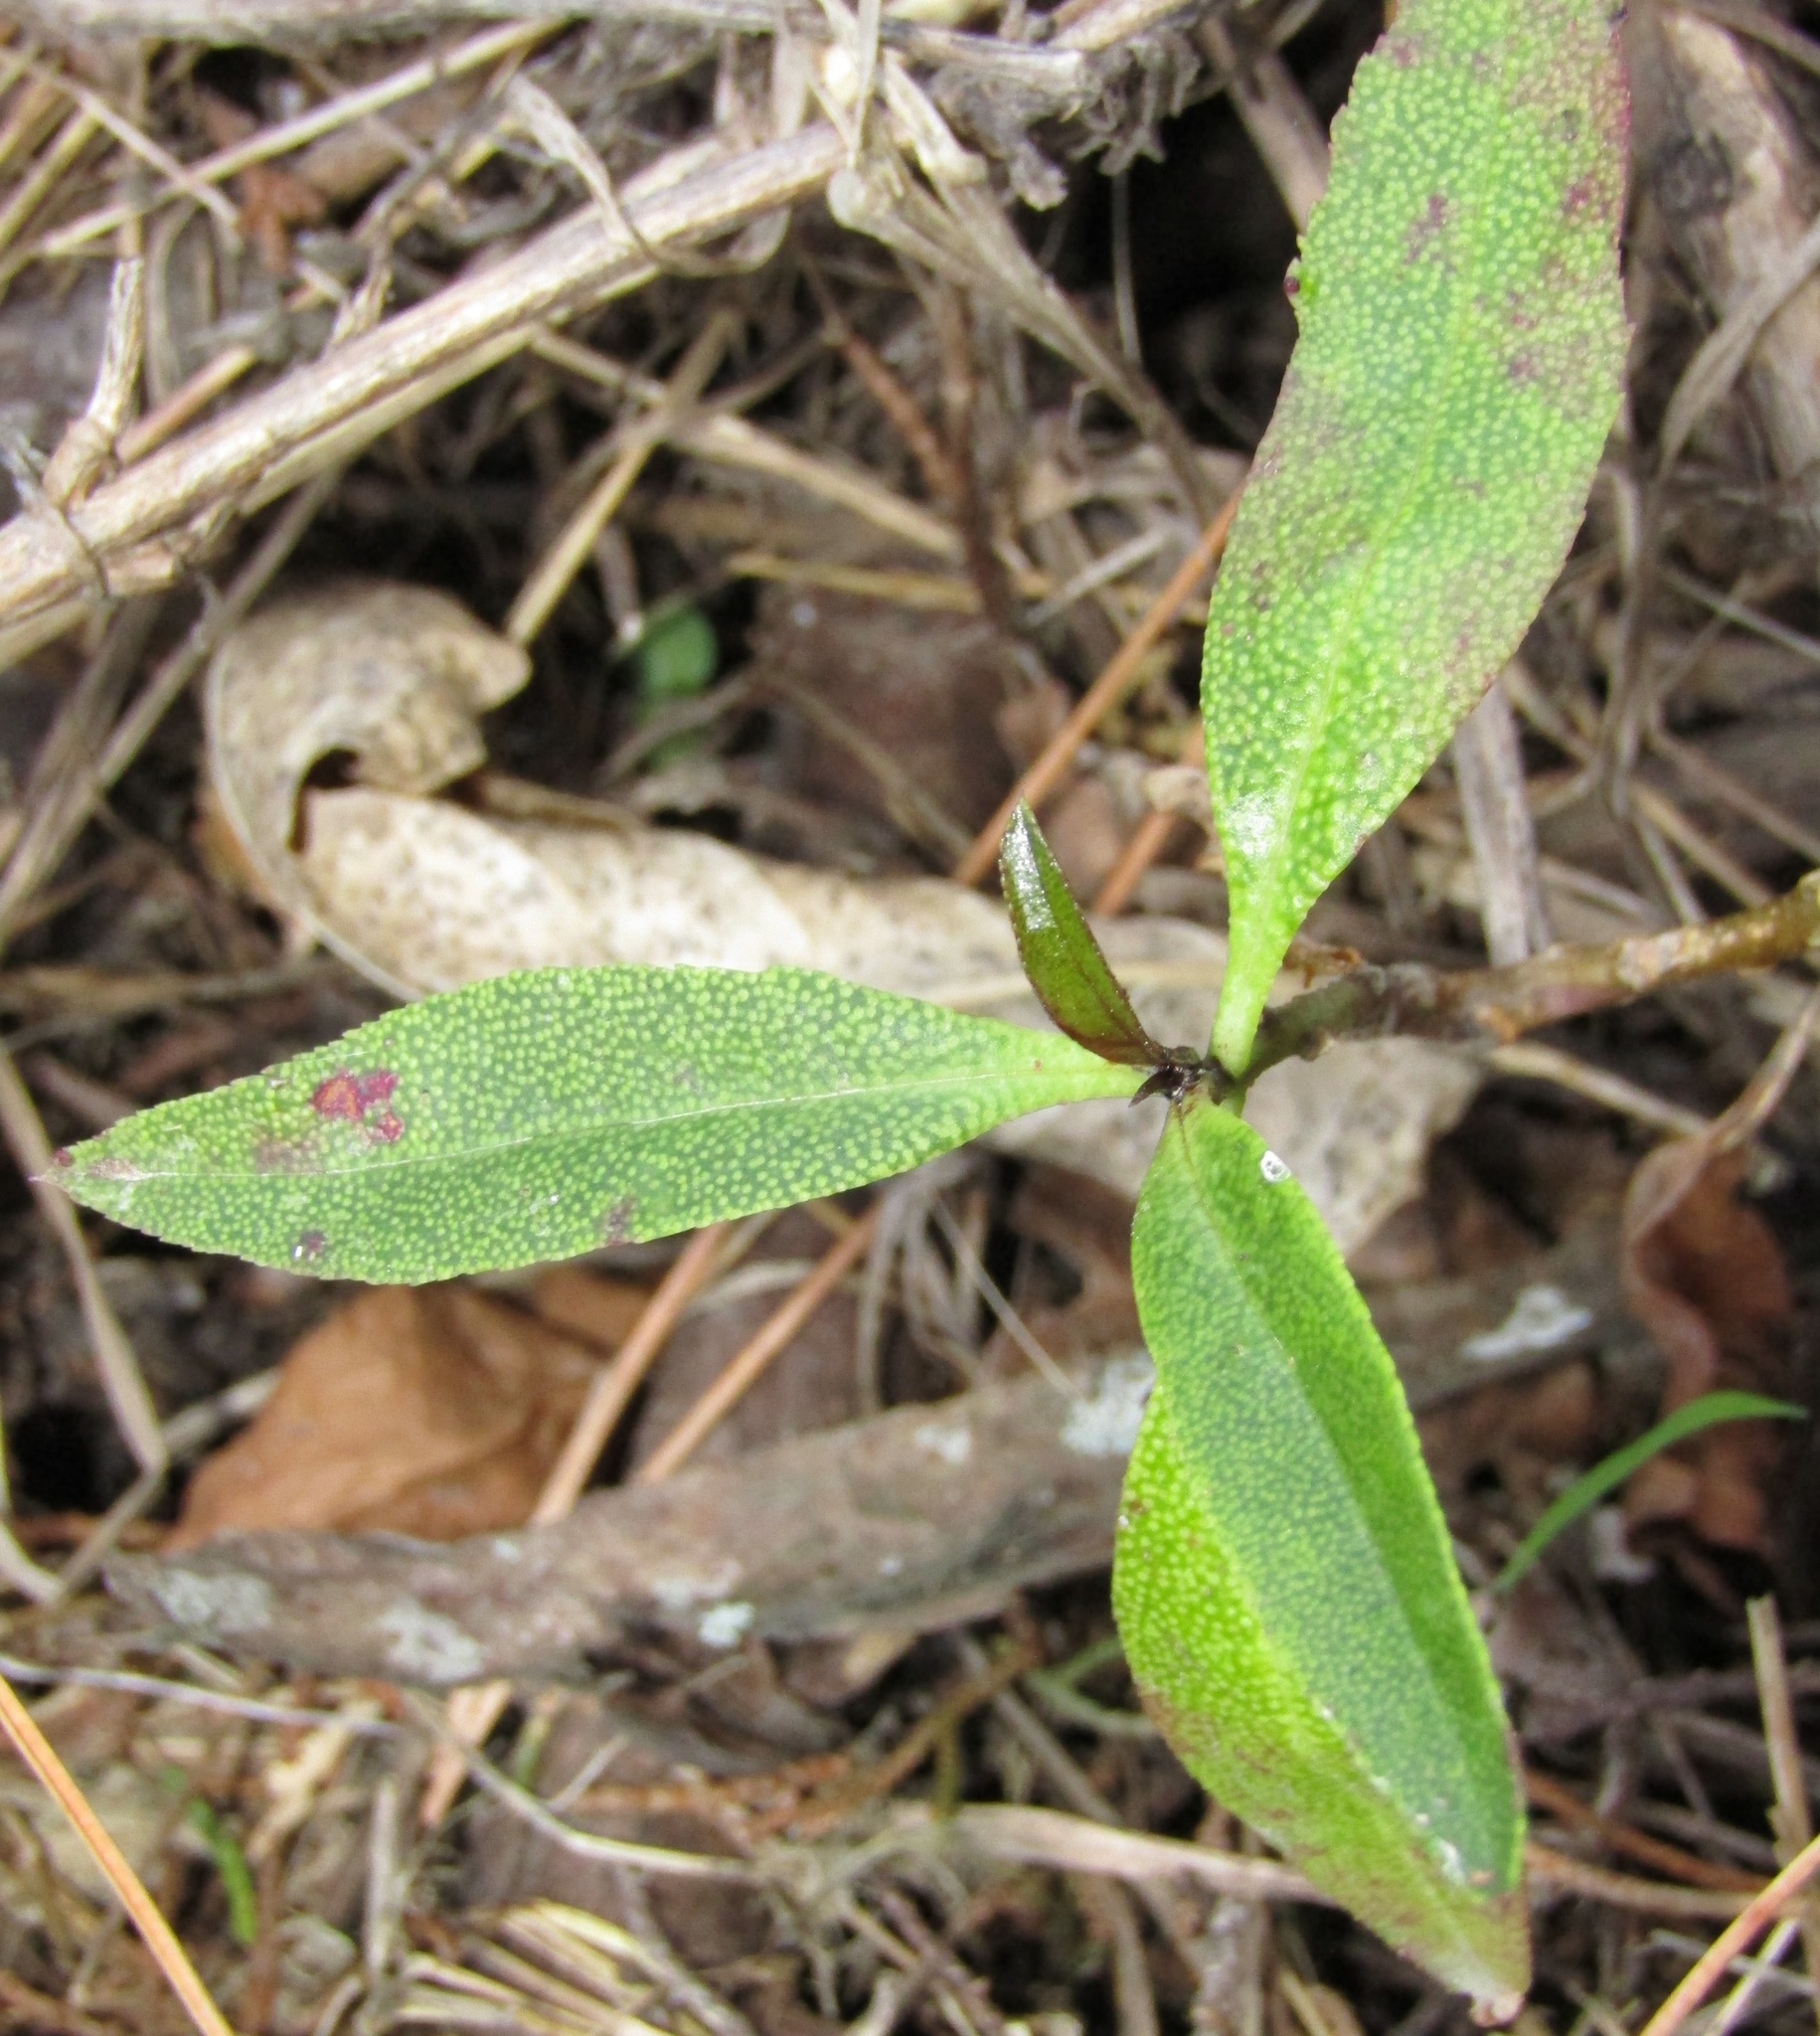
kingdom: Plantae
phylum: Tracheophyta
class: Magnoliopsida
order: Lamiales
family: Scrophulariaceae
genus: Myoporum
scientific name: Myoporum laetum
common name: Ngaio tree
